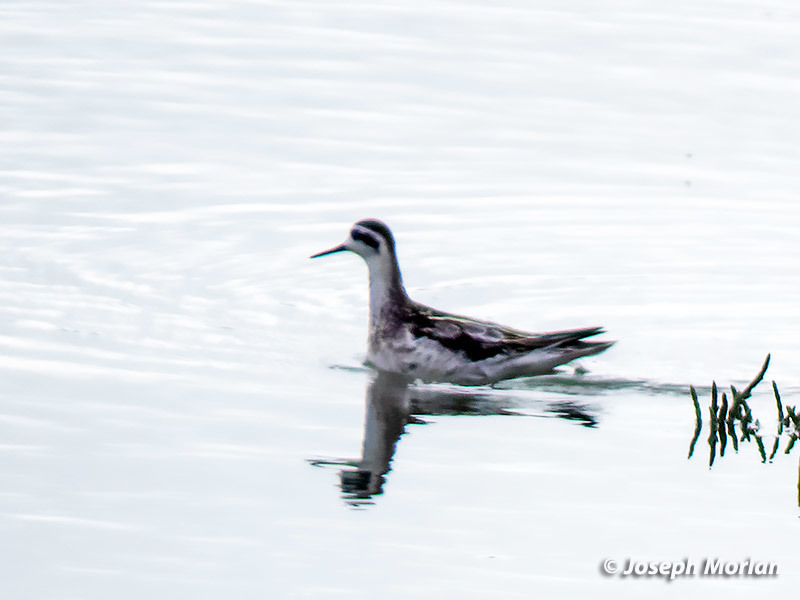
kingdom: Animalia
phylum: Chordata
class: Aves
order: Charadriiformes
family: Scolopacidae
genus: Phalaropus
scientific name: Phalaropus lobatus
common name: Red-necked phalarope
